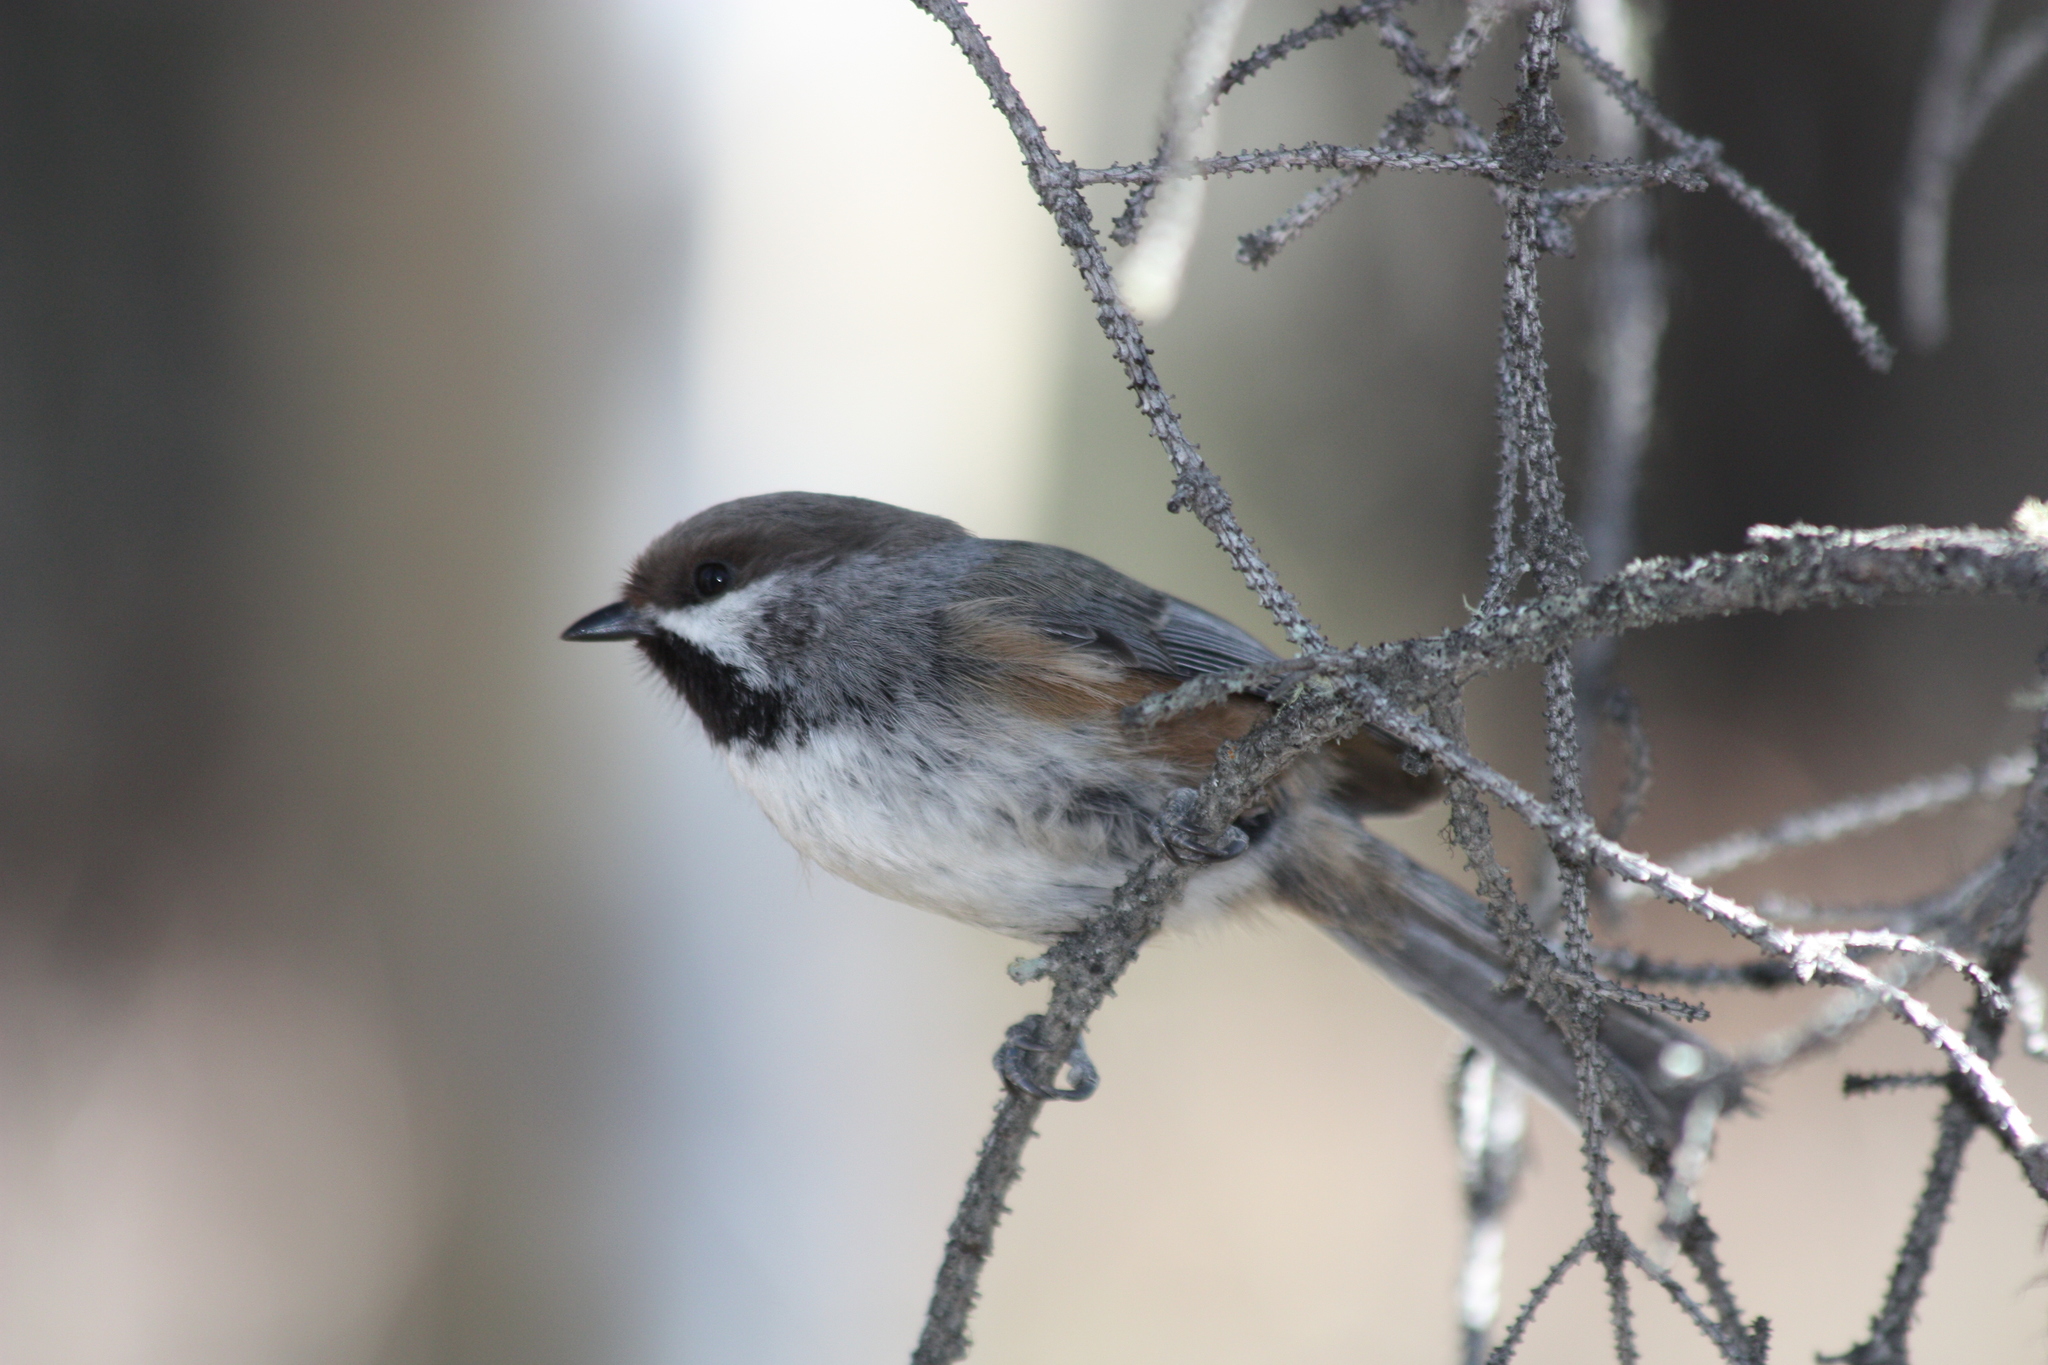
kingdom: Animalia
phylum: Chordata
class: Aves
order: Passeriformes
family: Paridae
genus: Poecile
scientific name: Poecile hudsonicus
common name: Boreal chickadee
